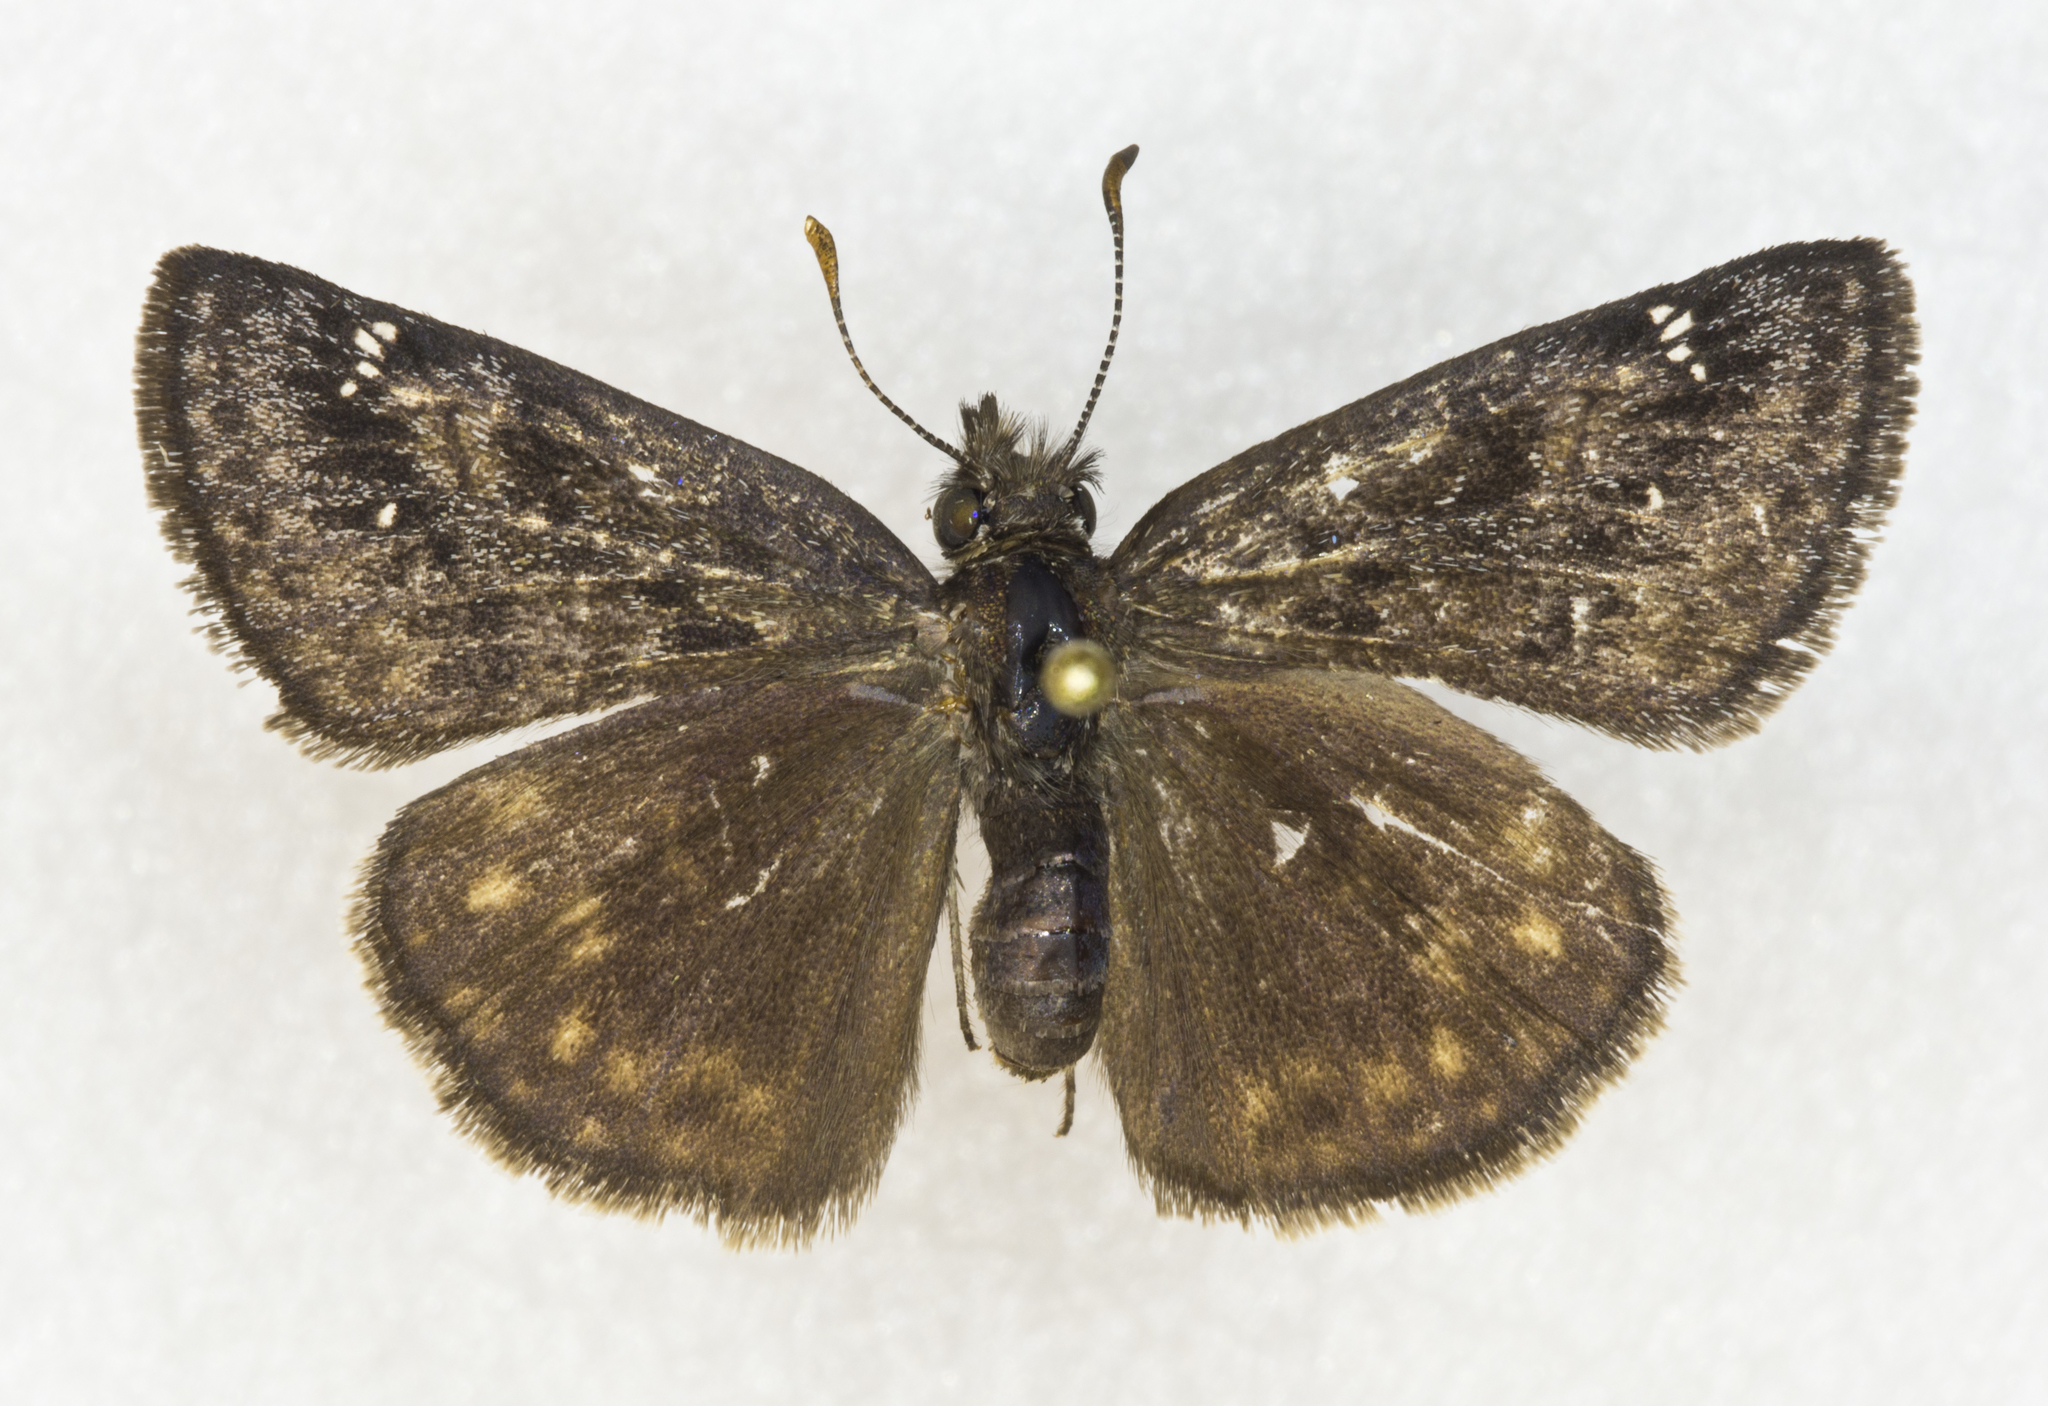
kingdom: Animalia
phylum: Arthropoda
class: Insecta
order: Lepidoptera
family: Hesperiidae
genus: Erynnis
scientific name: Erynnis persius
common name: Persius duskywing
